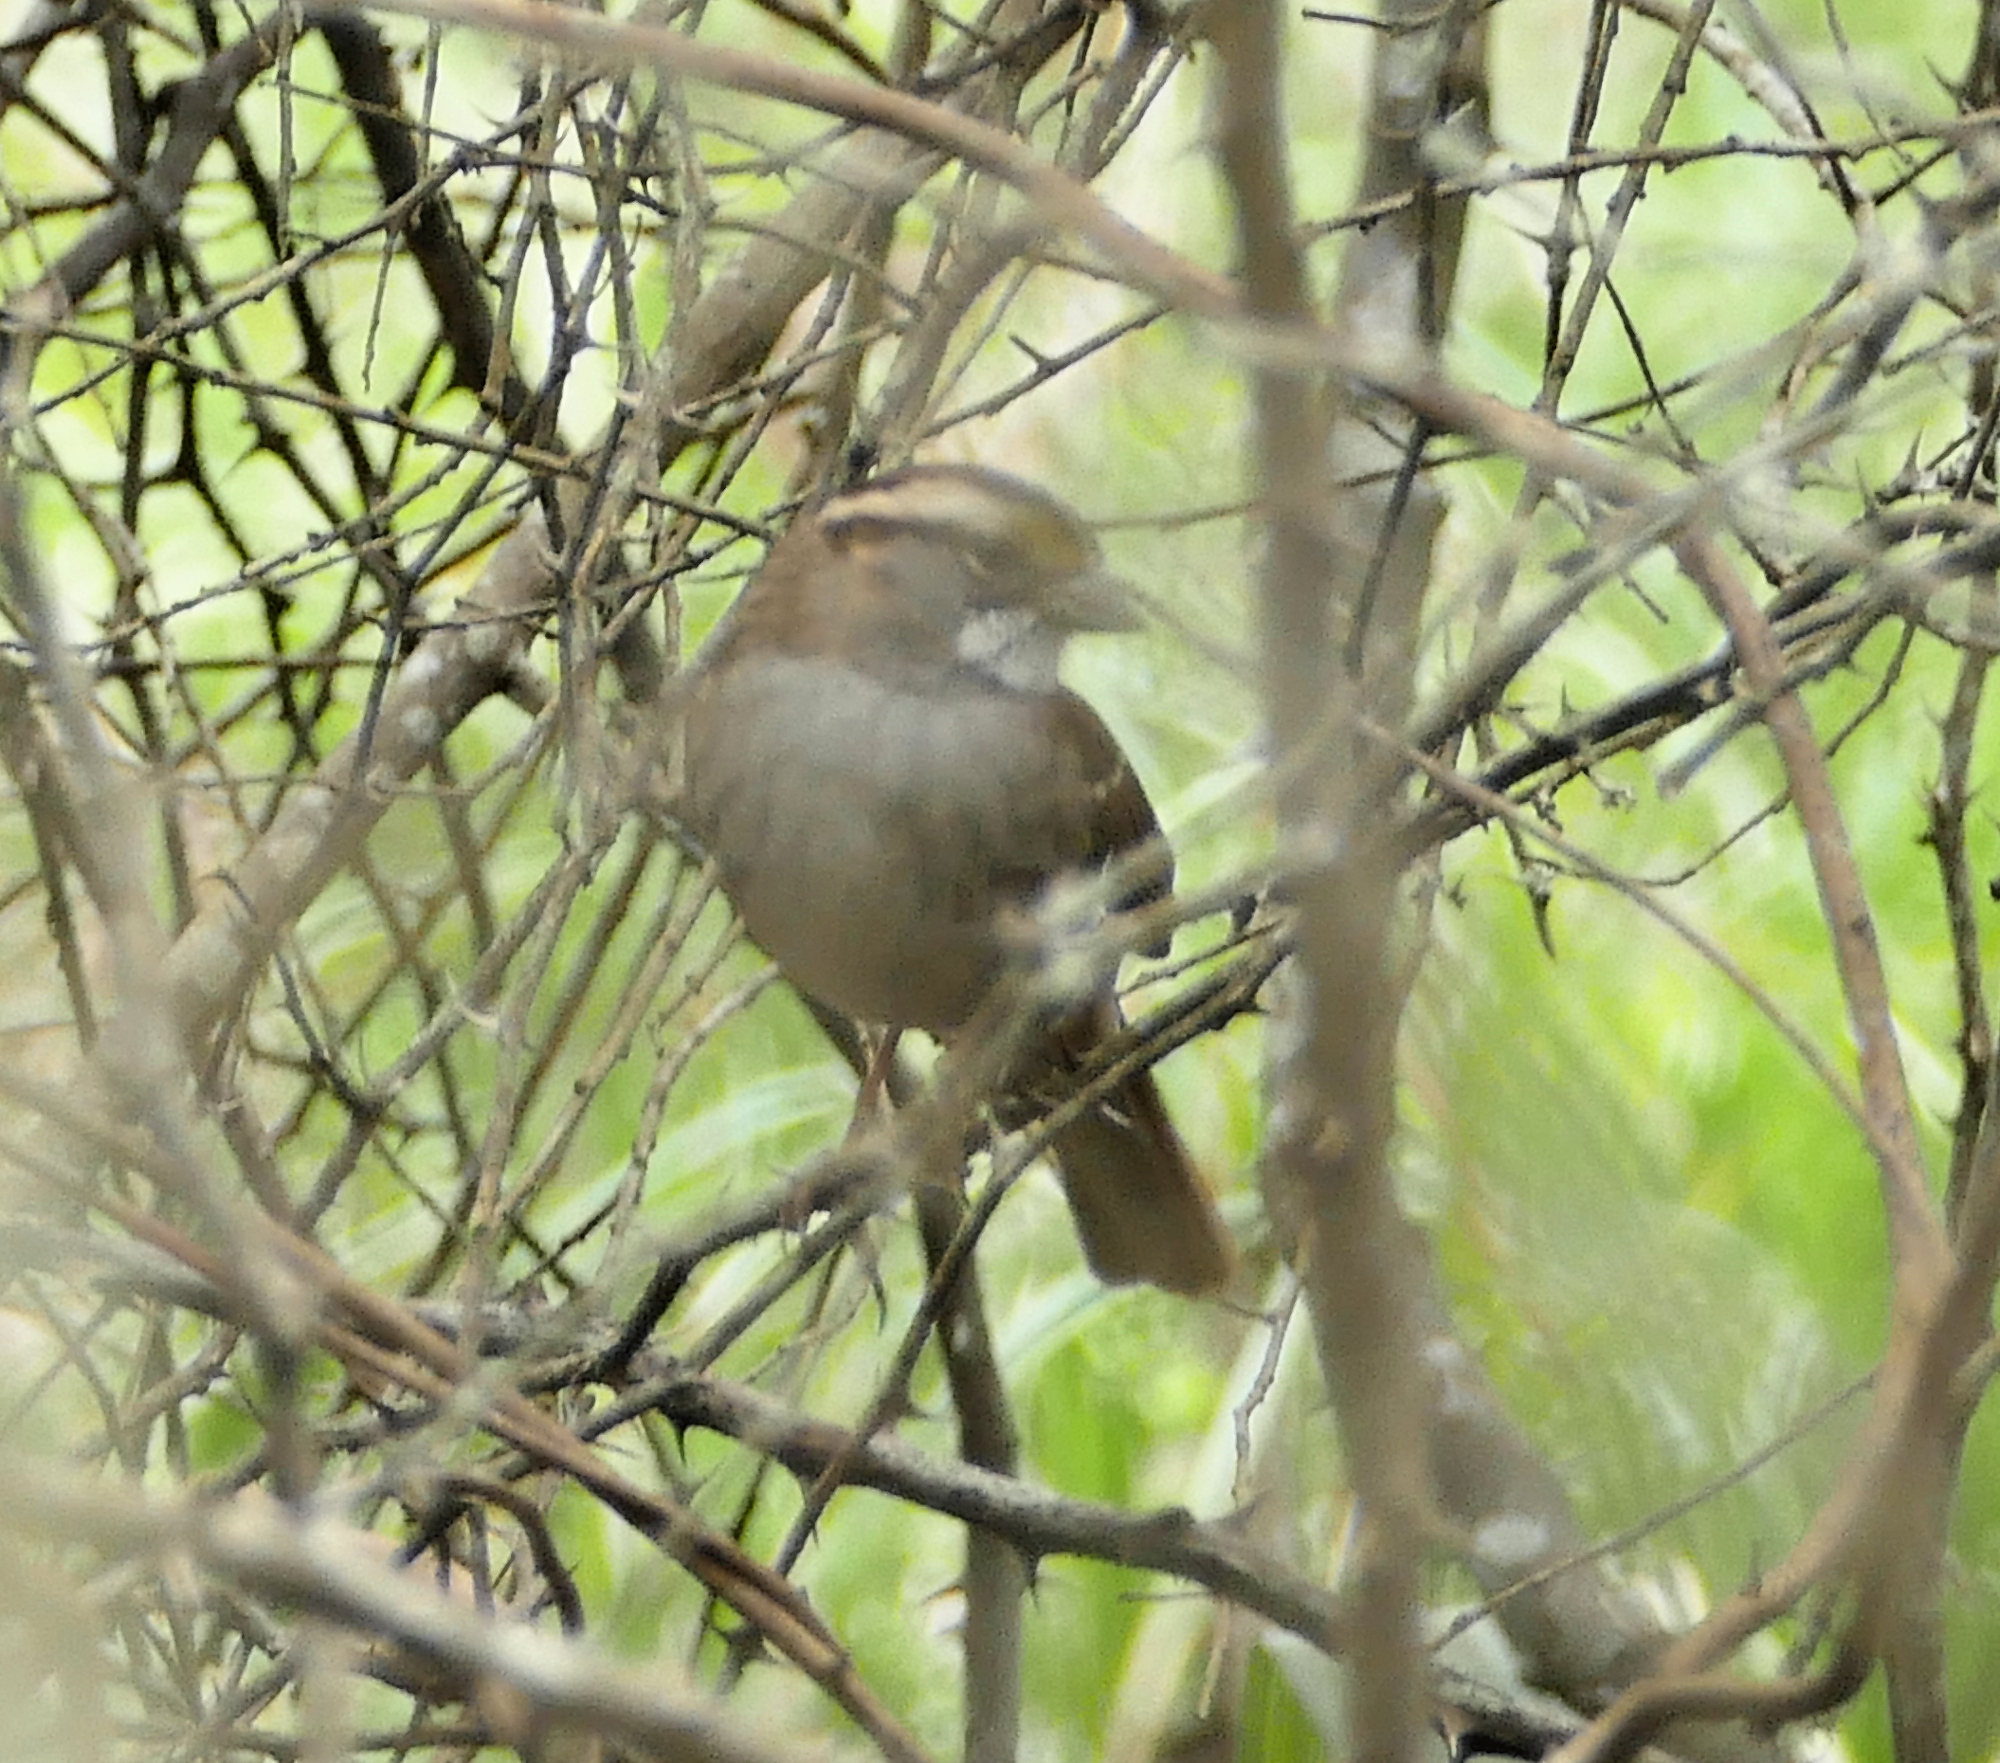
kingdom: Animalia
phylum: Chordata
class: Aves
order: Passeriformes
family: Passerellidae
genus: Zonotrichia
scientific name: Zonotrichia albicollis
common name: White-throated sparrow
